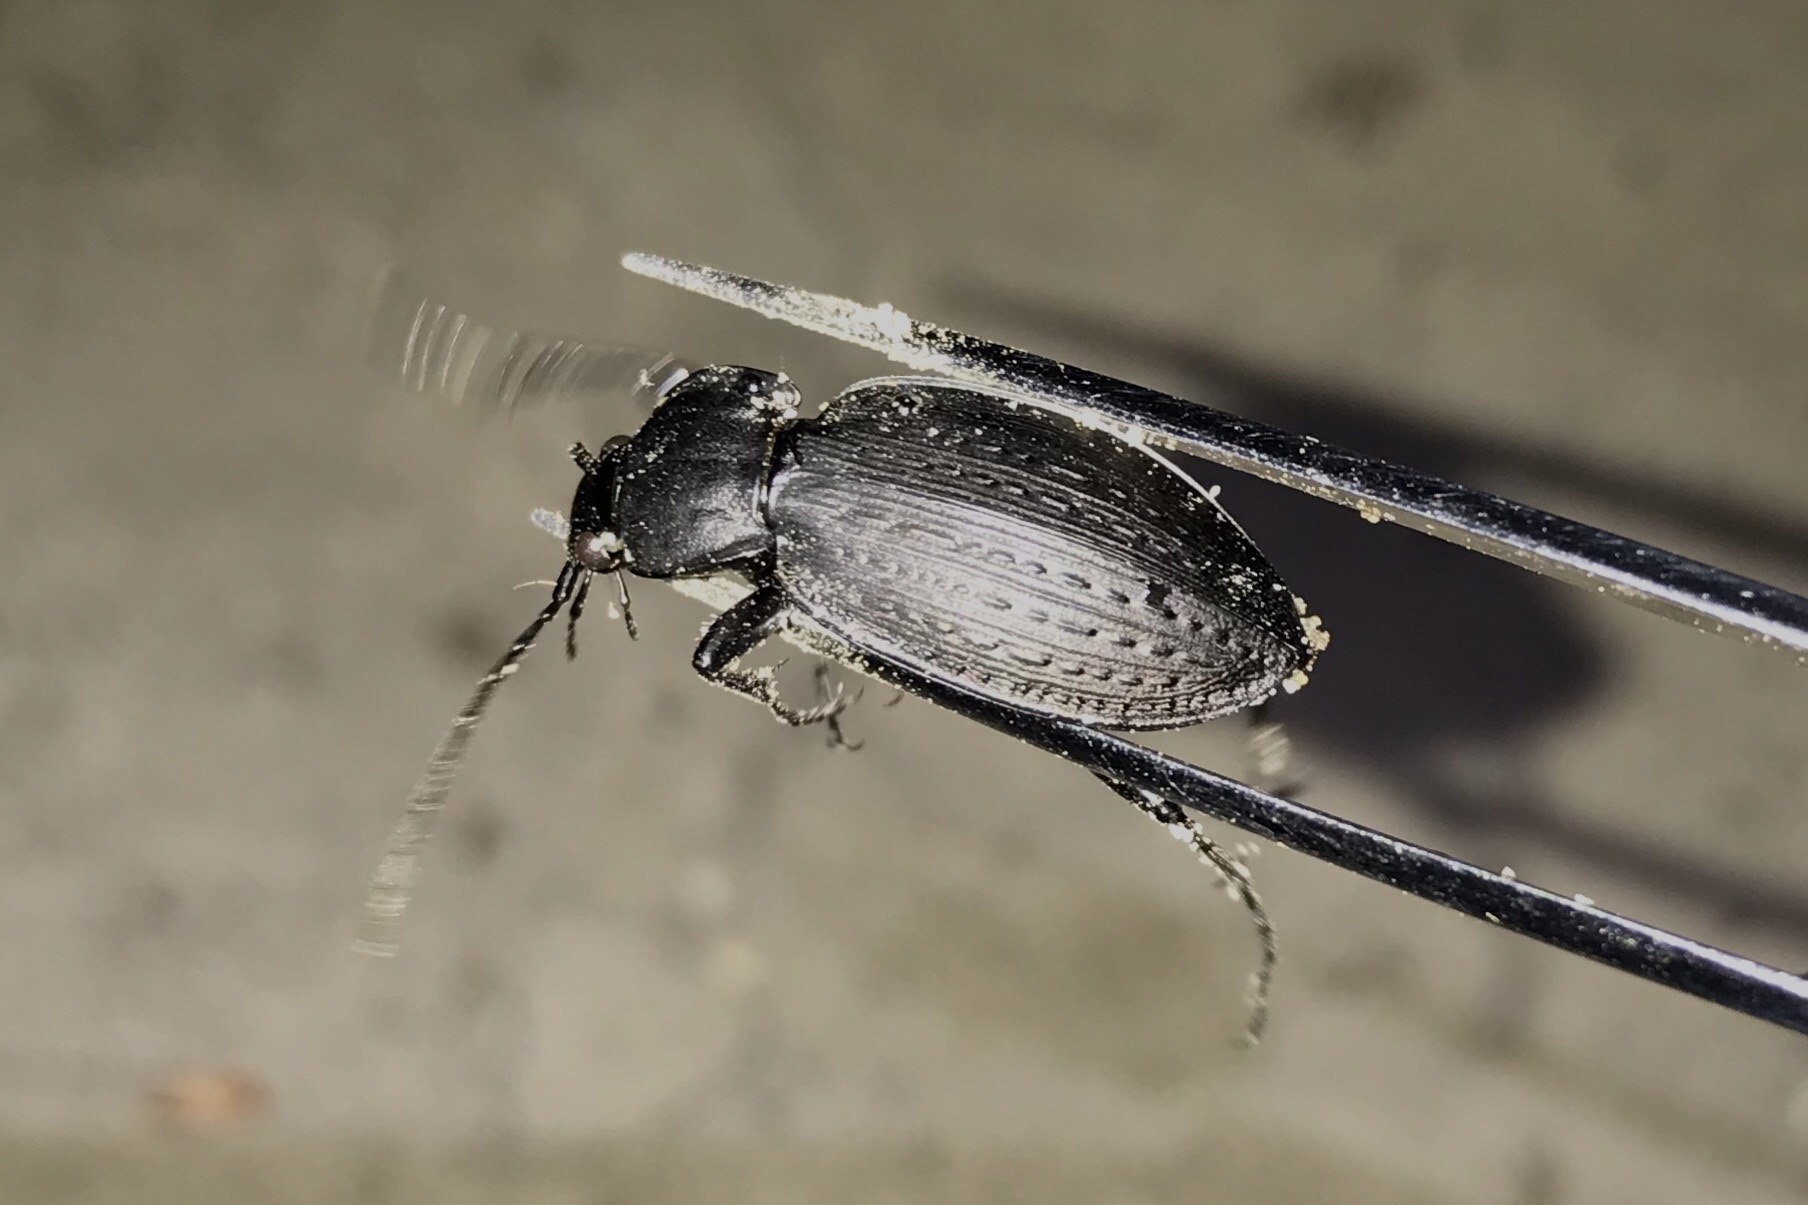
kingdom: Animalia
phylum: Arthropoda
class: Insecta
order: Coleoptera
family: Carabidae
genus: Carabus
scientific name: Carabus vinctus
